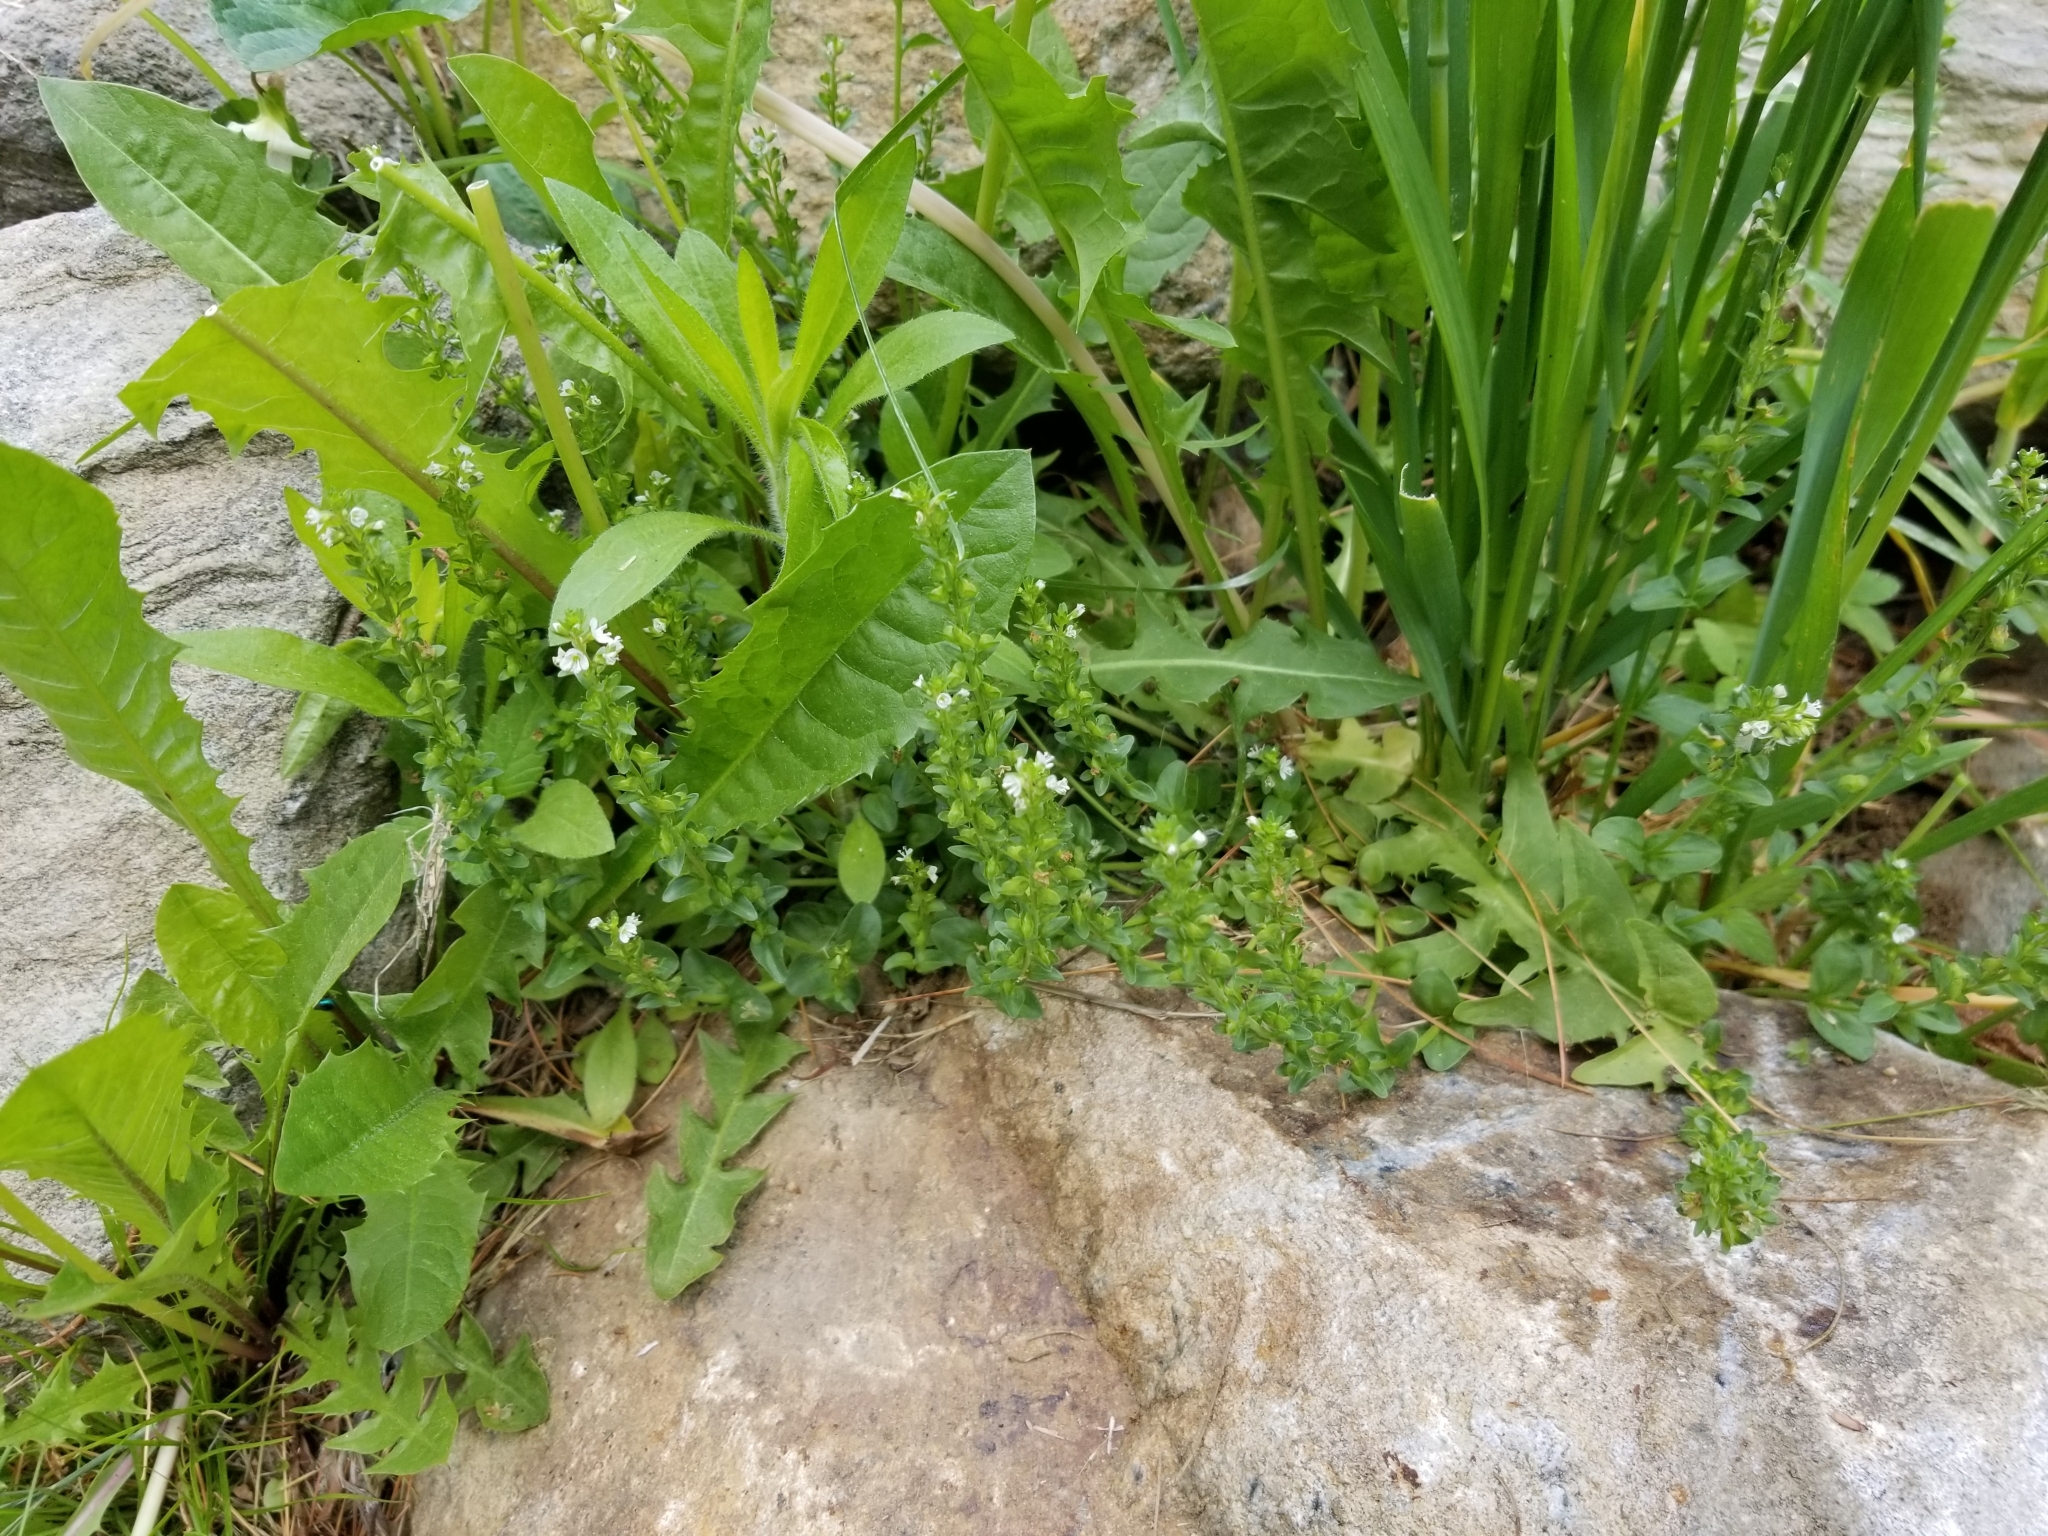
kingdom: Plantae
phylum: Tracheophyta
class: Magnoliopsida
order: Lamiales
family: Plantaginaceae
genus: Veronica
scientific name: Veronica serpyllifolia
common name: Thyme-leaved speedwell
